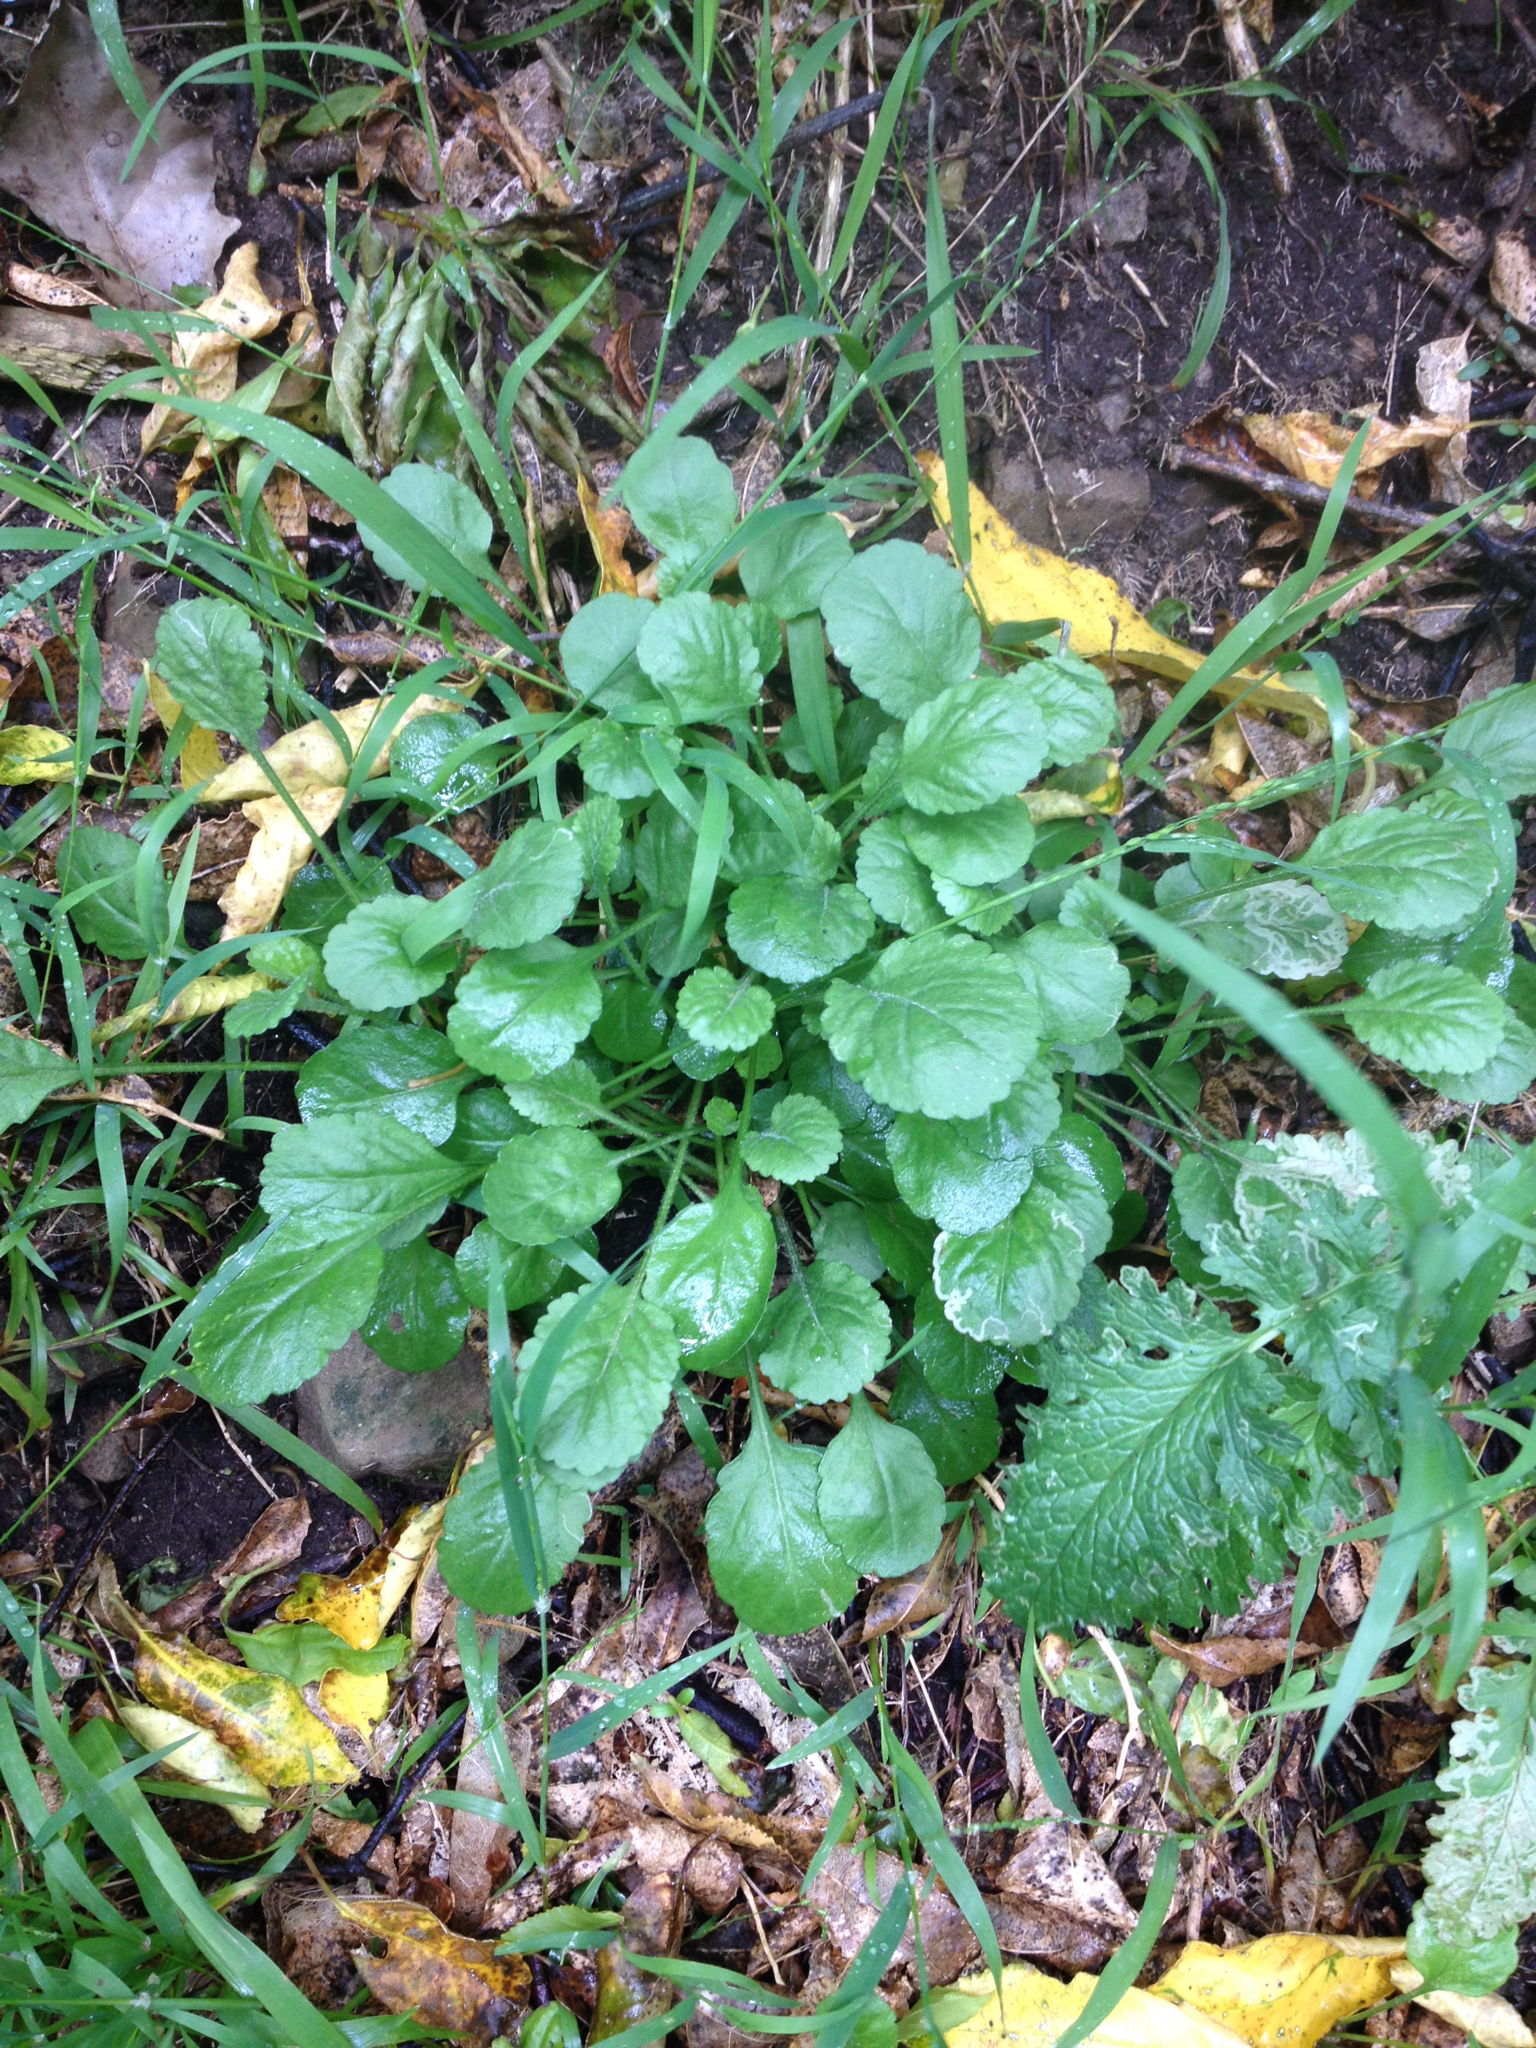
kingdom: Plantae
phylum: Tracheophyta
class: Magnoliopsida
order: Asterales
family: Asteraceae
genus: Lapsana
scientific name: Lapsana communis
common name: Nipplewort
